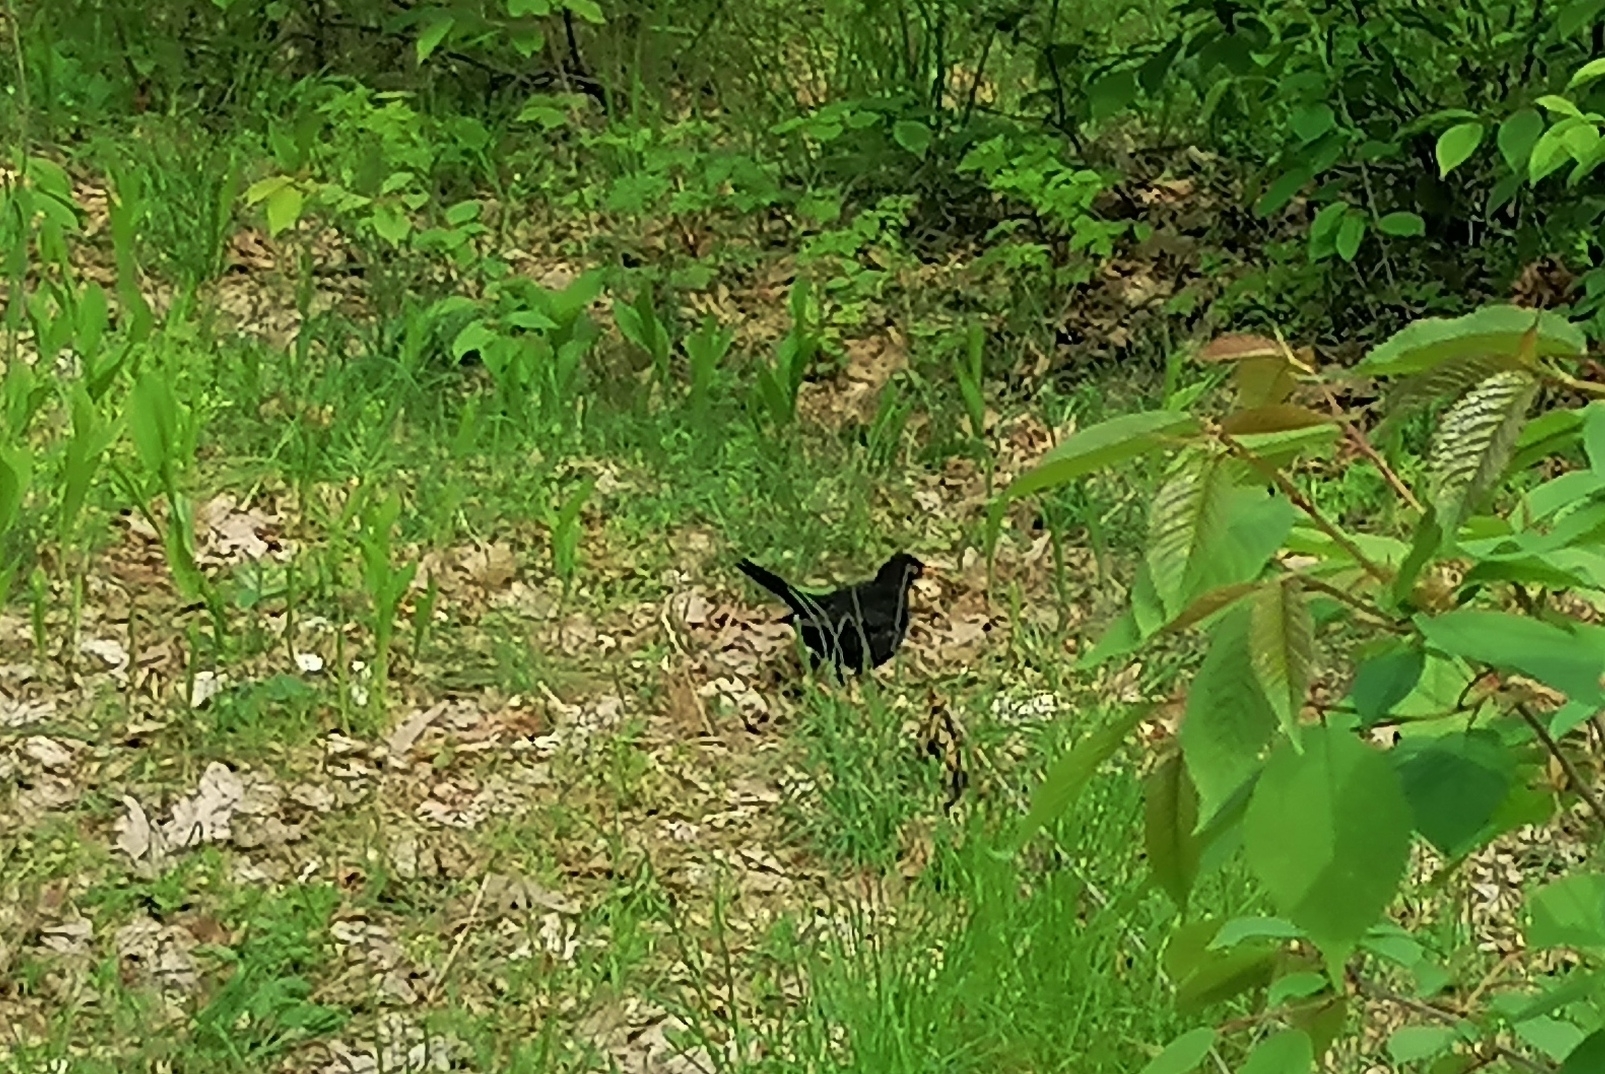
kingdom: Animalia
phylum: Chordata
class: Aves
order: Passeriformes
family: Turdidae
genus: Turdus
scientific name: Turdus merula
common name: Common blackbird
